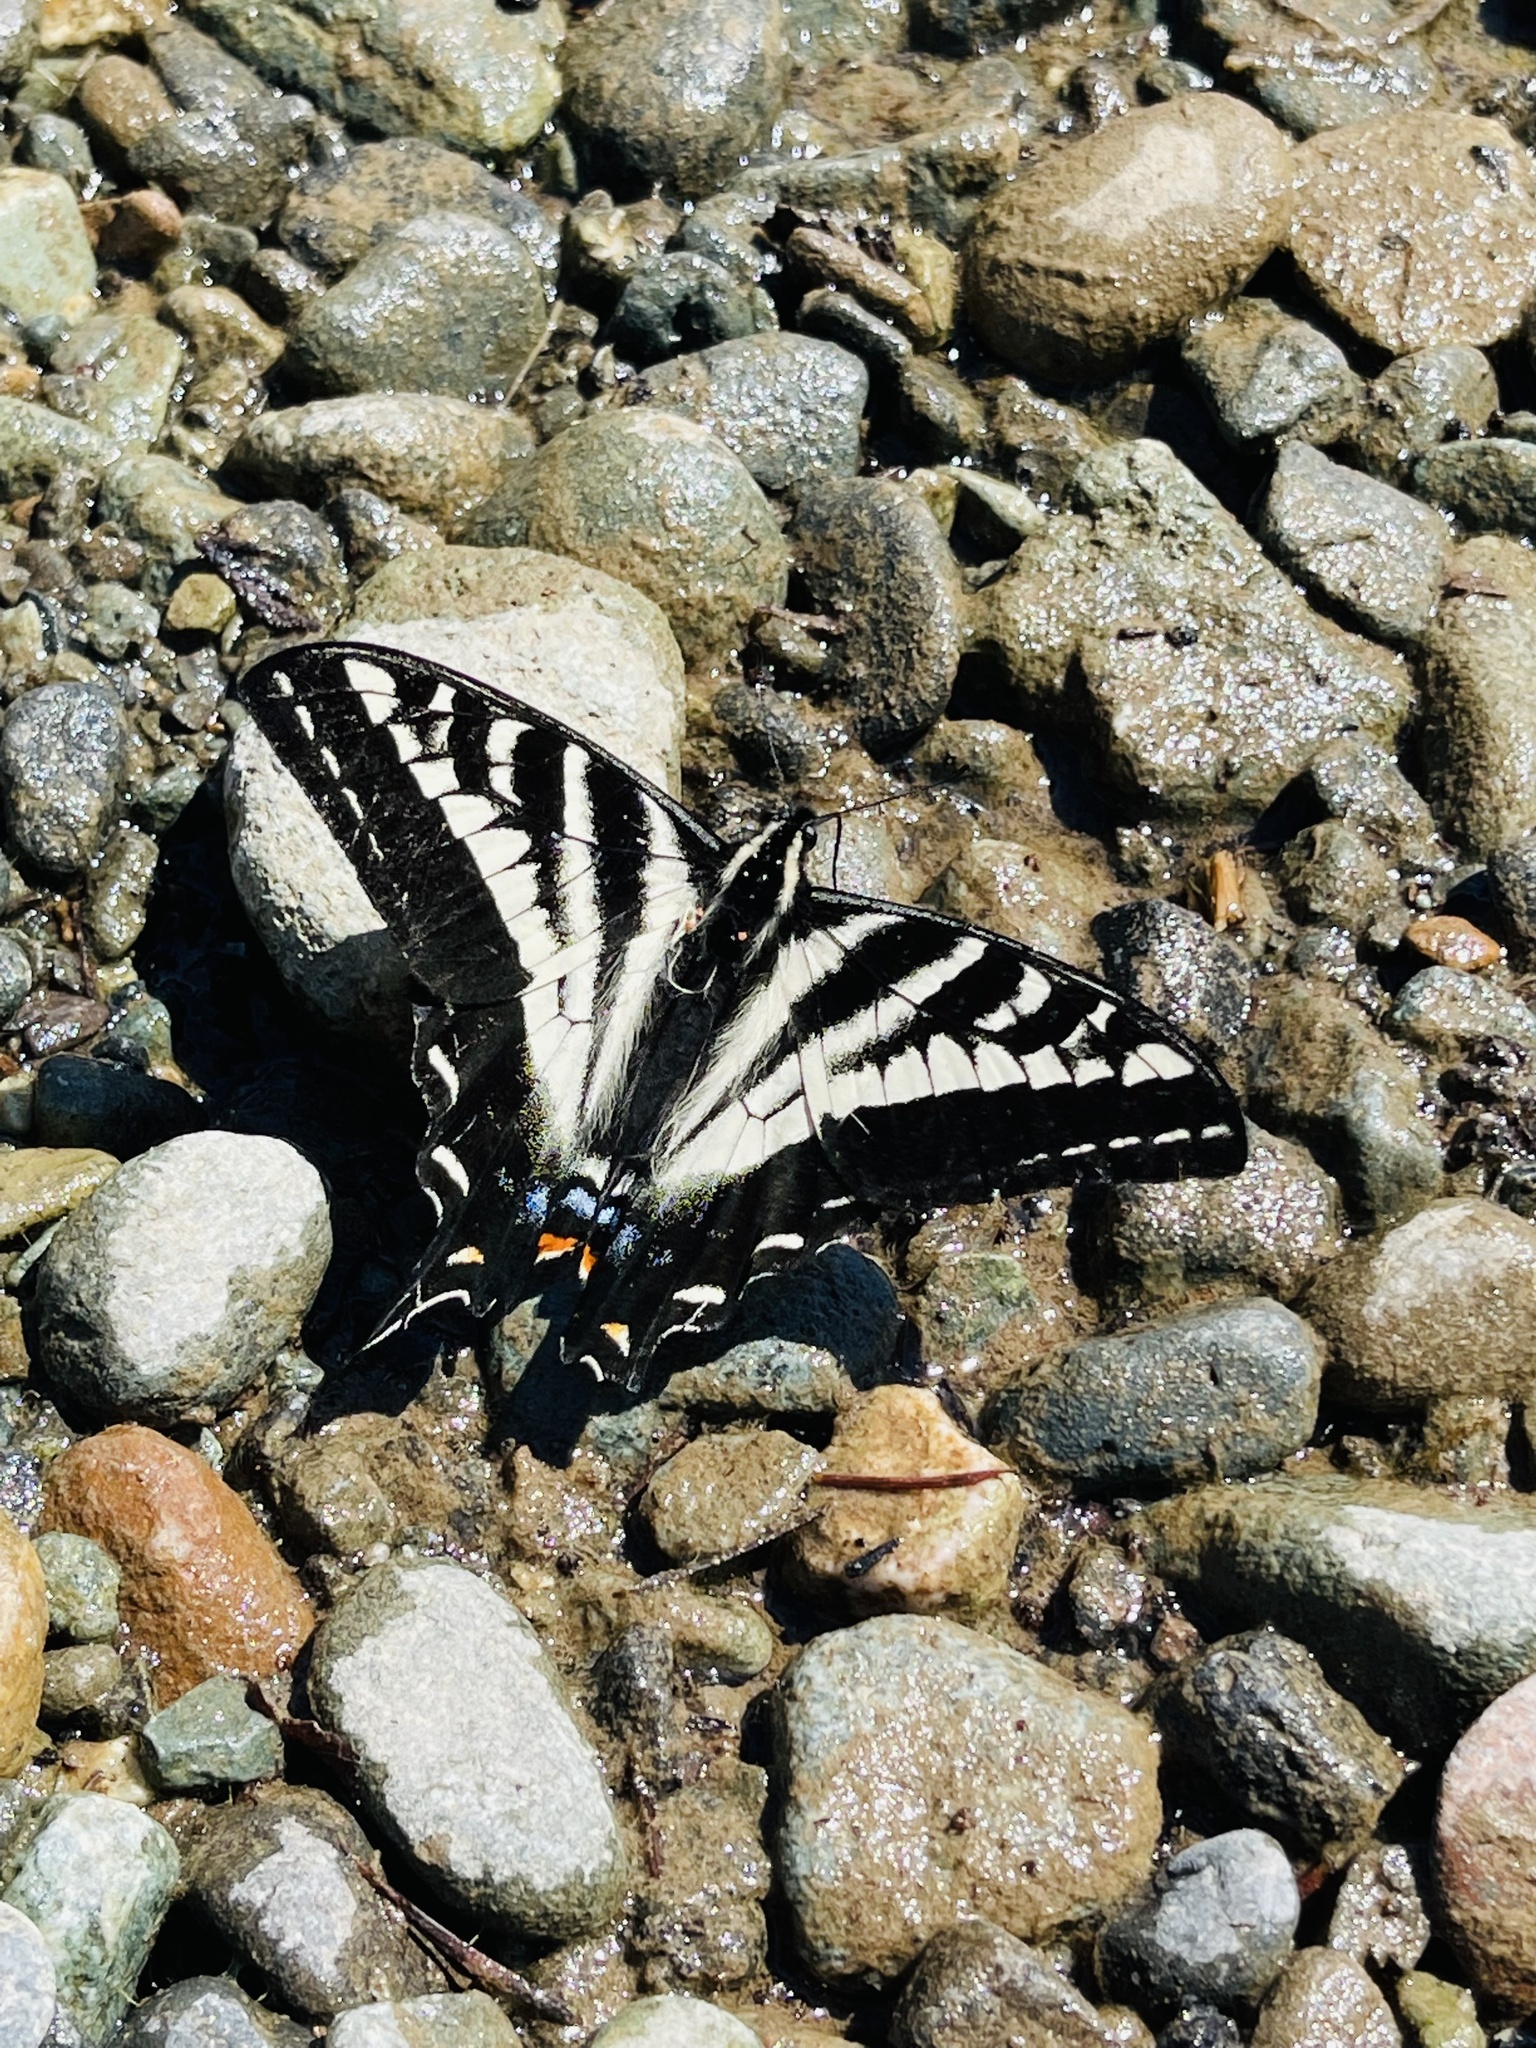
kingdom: Animalia
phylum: Arthropoda
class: Insecta
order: Lepidoptera
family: Papilionidae
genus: Papilio
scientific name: Papilio eurymedon
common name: Pale tiger swallowtail
